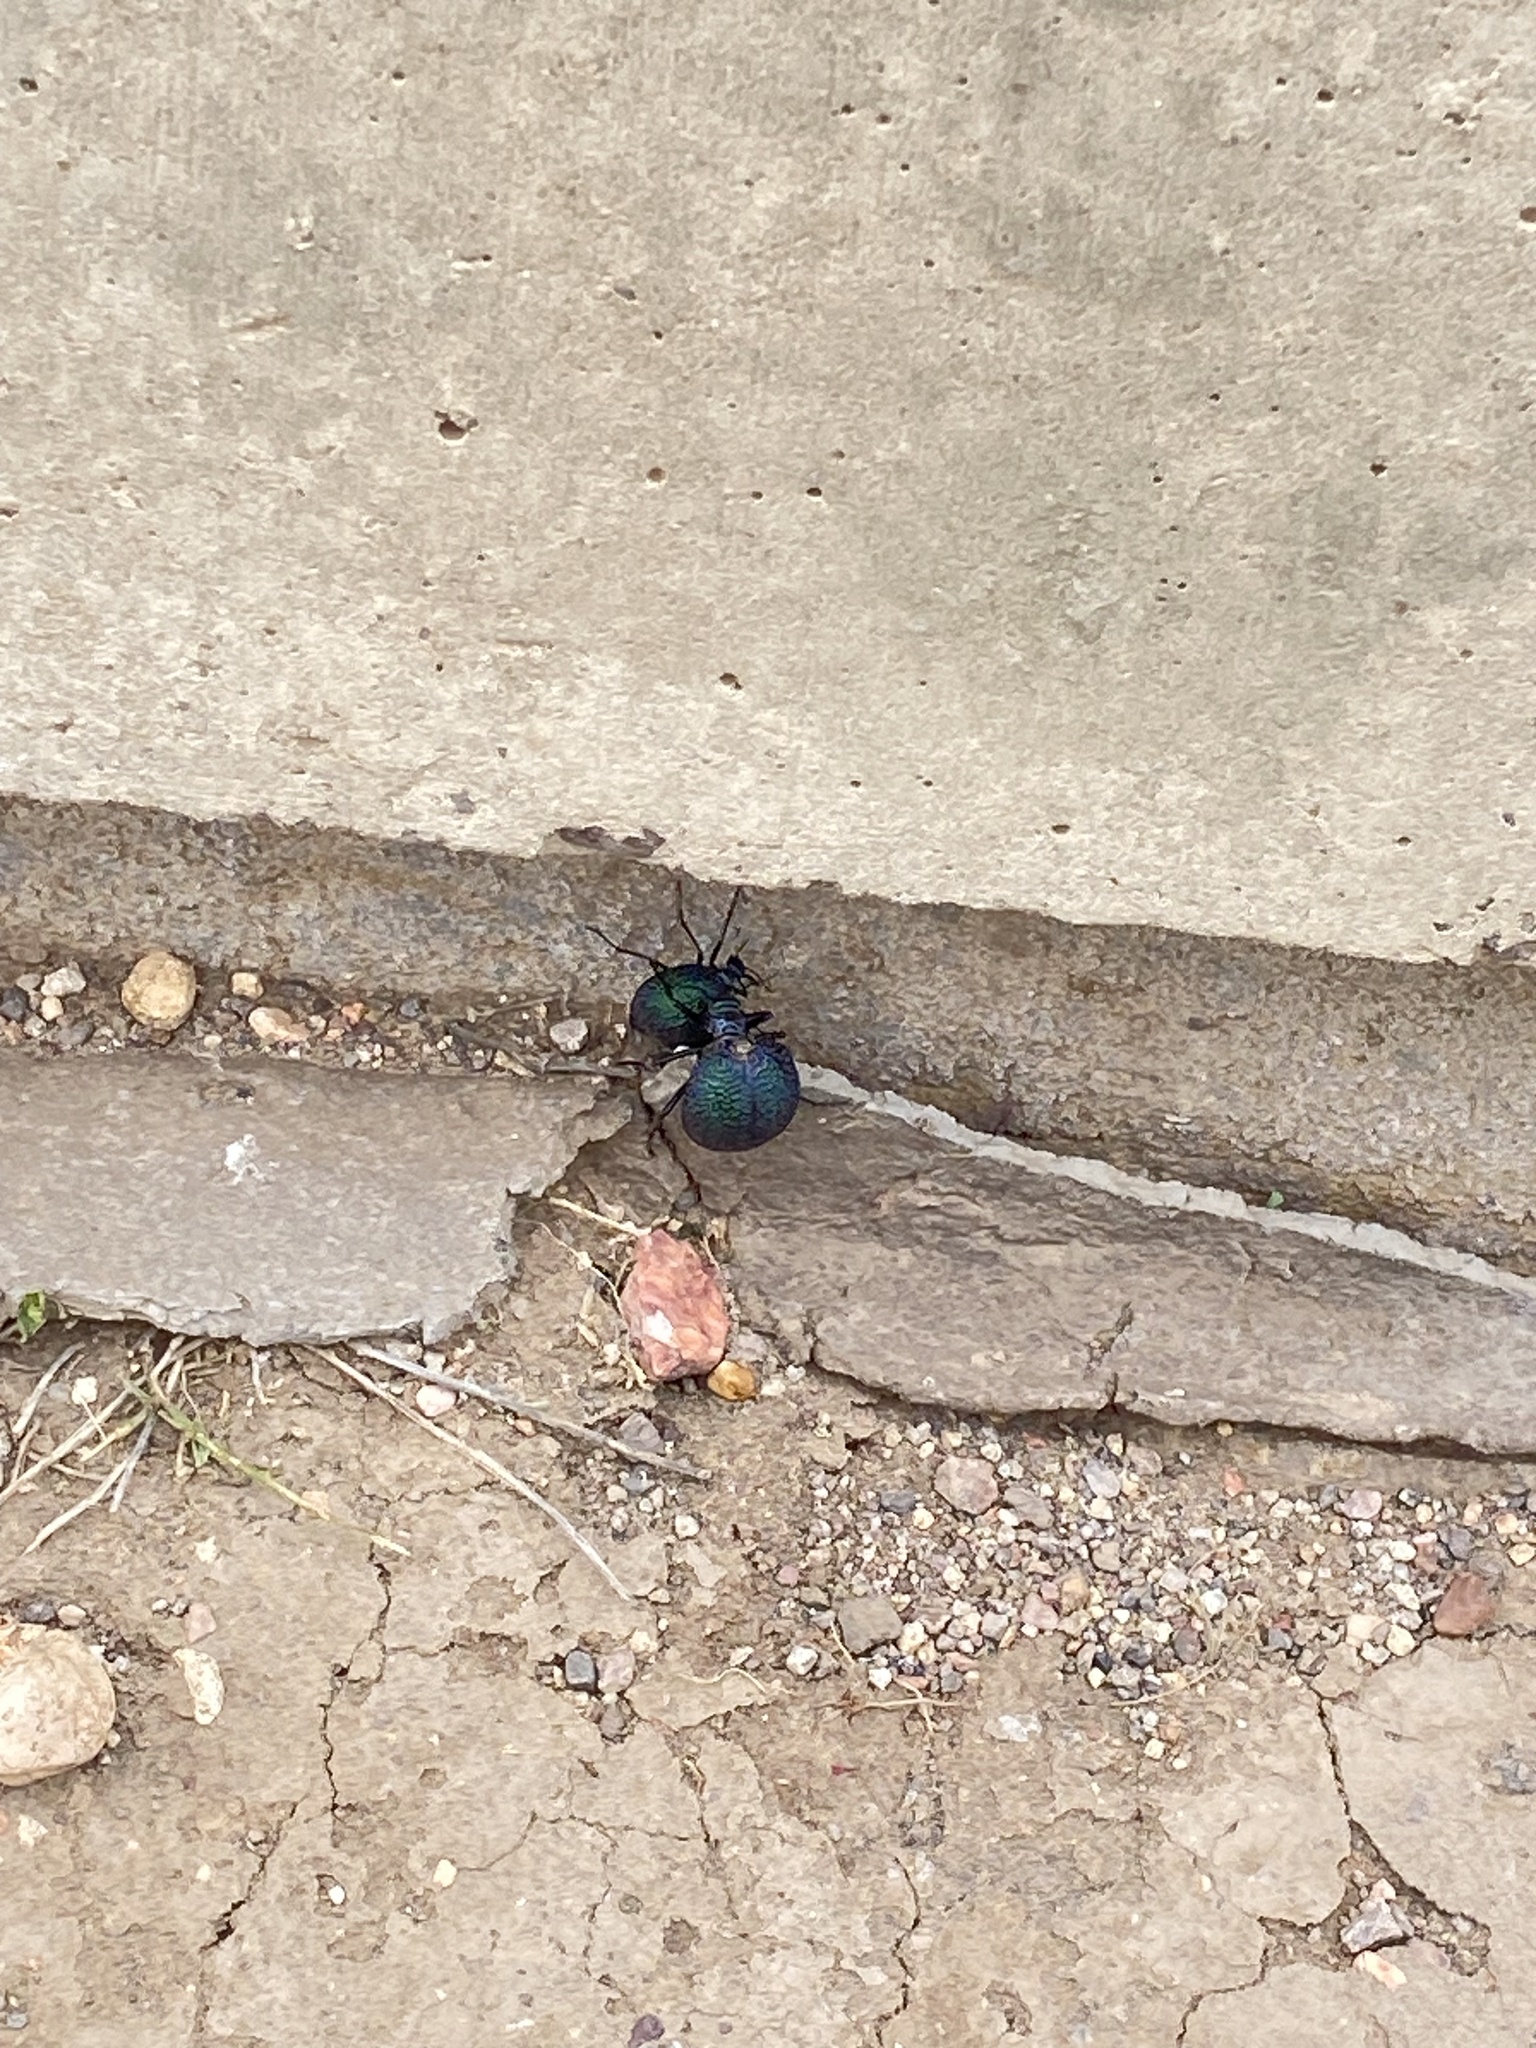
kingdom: Animalia
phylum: Arthropoda
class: Insecta
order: Coleoptera
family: Meloidae
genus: Cysteodemus
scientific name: Cysteodemus wislizeni
